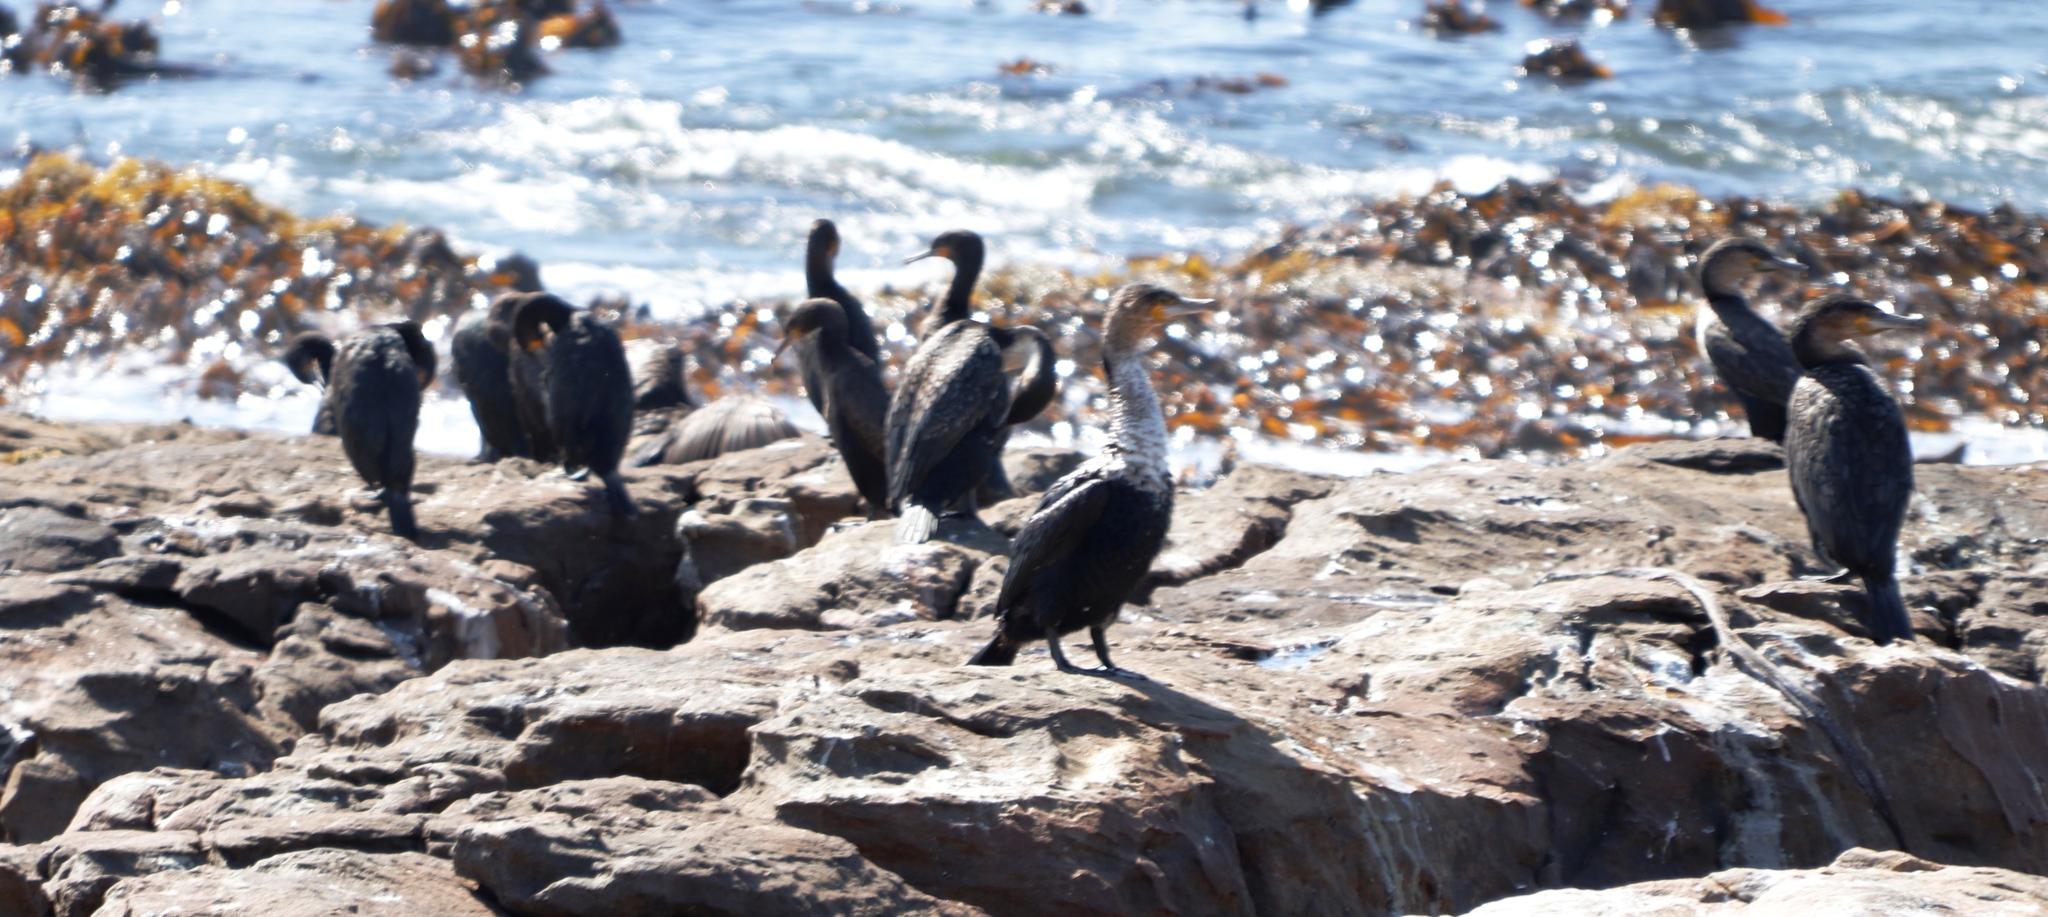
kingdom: Animalia
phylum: Chordata
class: Aves
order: Suliformes
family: Phalacrocoracidae
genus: Phalacrocorax
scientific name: Phalacrocorax carbo
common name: Great cormorant
